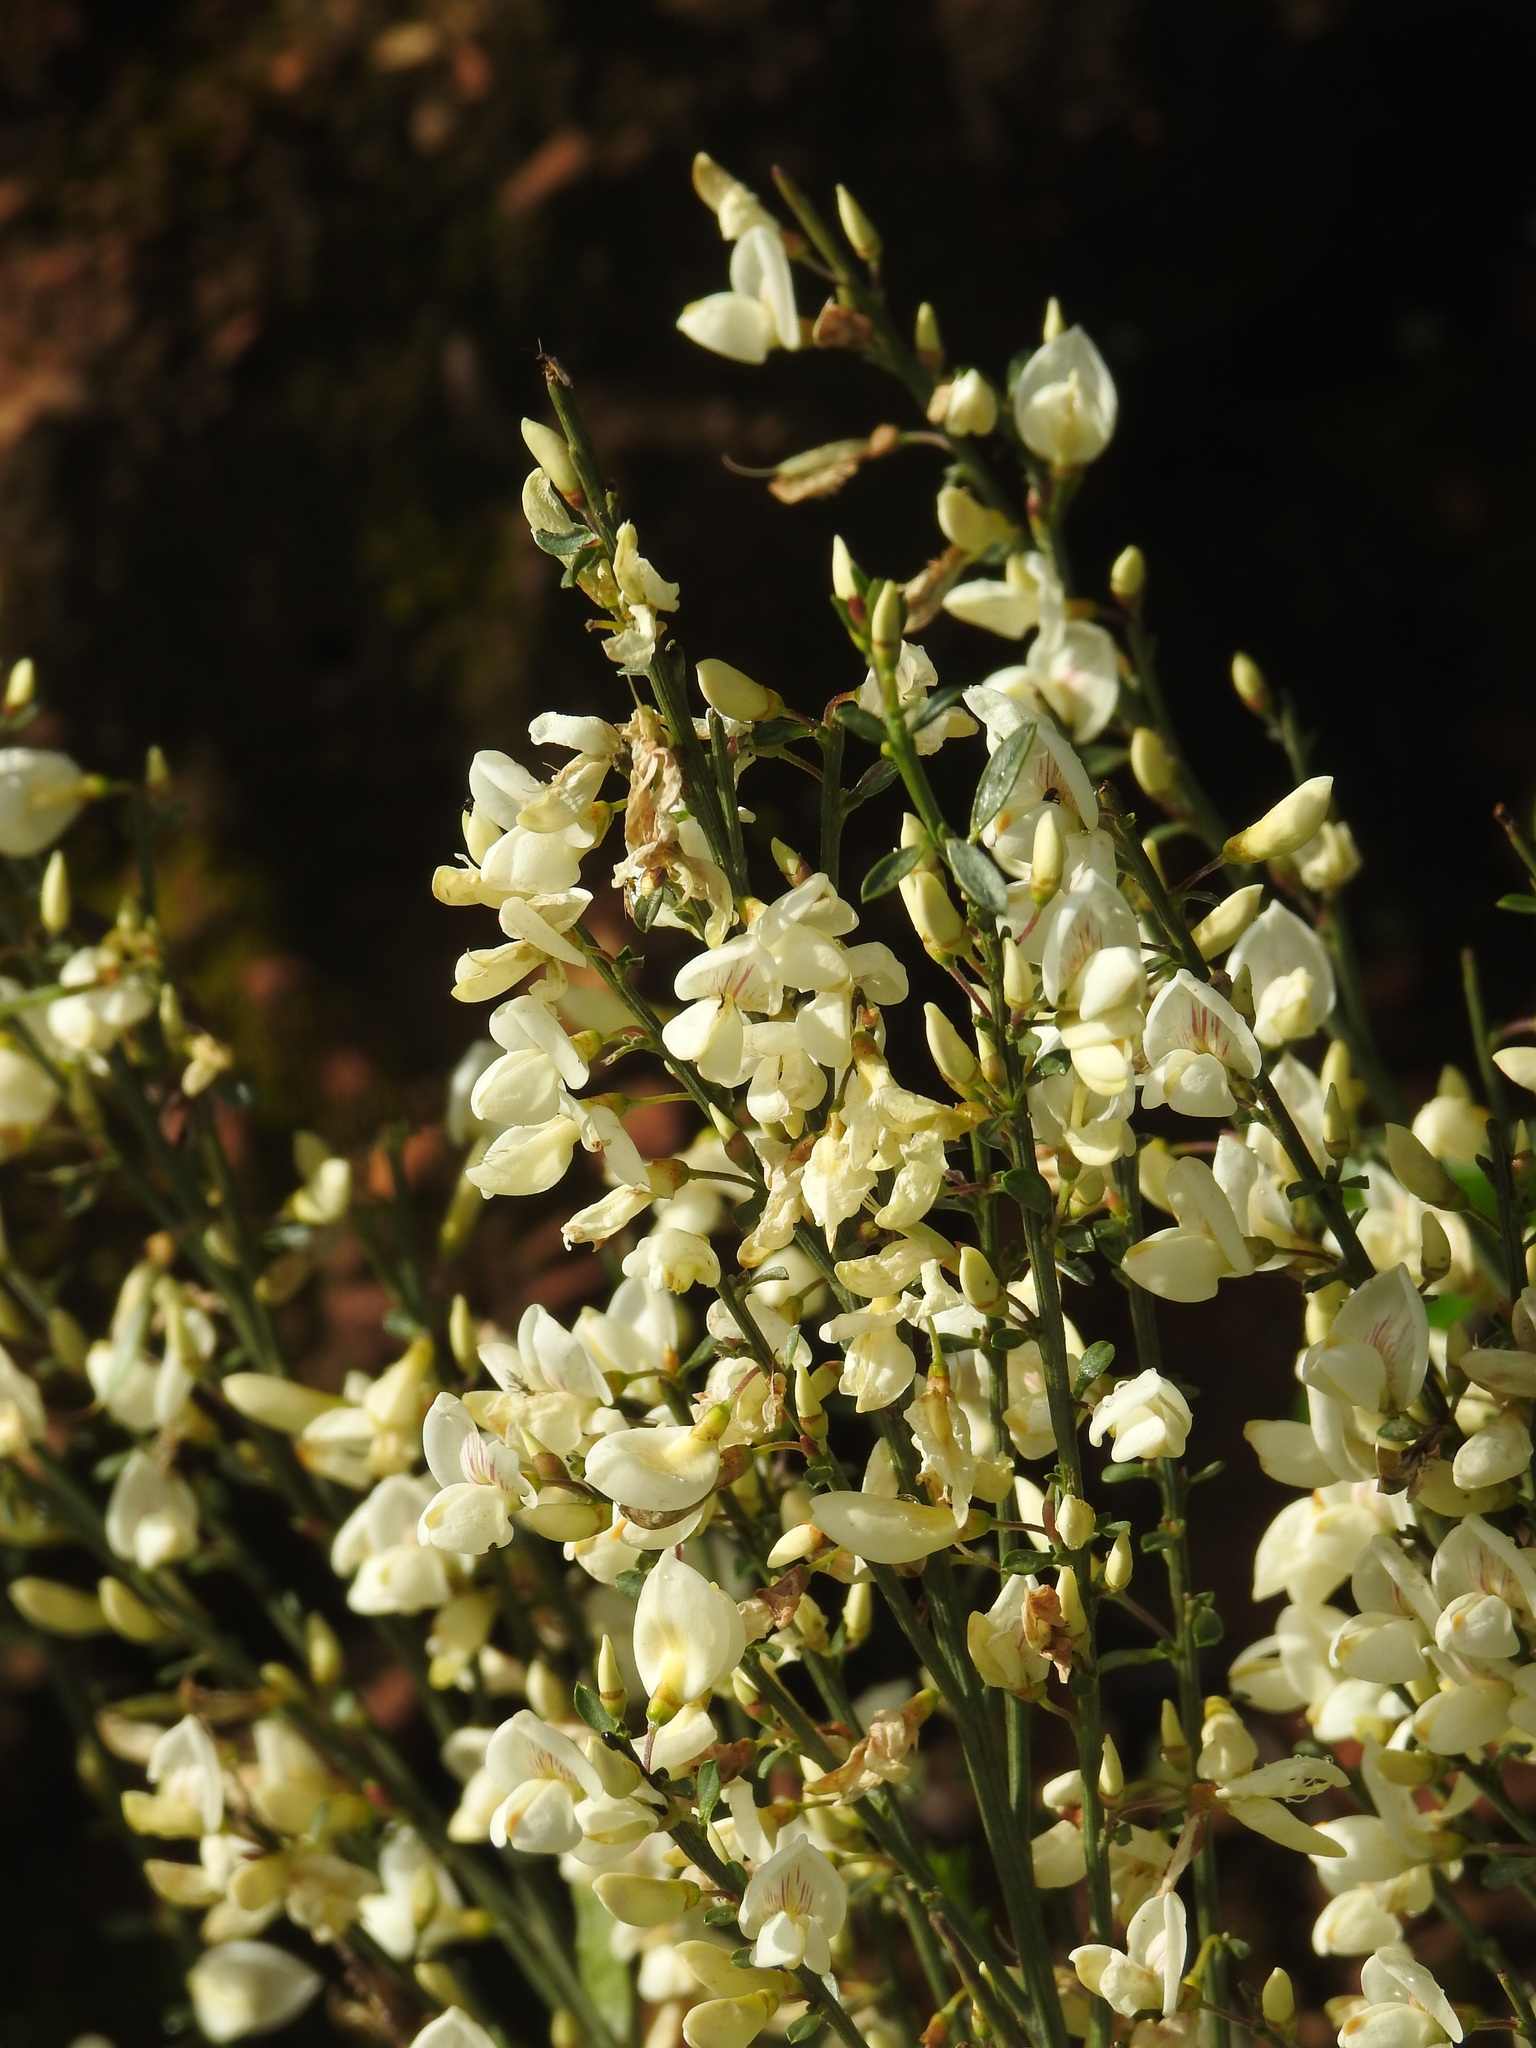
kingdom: Plantae
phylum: Tracheophyta
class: Magnoliopsida
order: Fabales
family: Fabaceae
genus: Cytisus
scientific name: Cytisus multiflorus
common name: White broom
